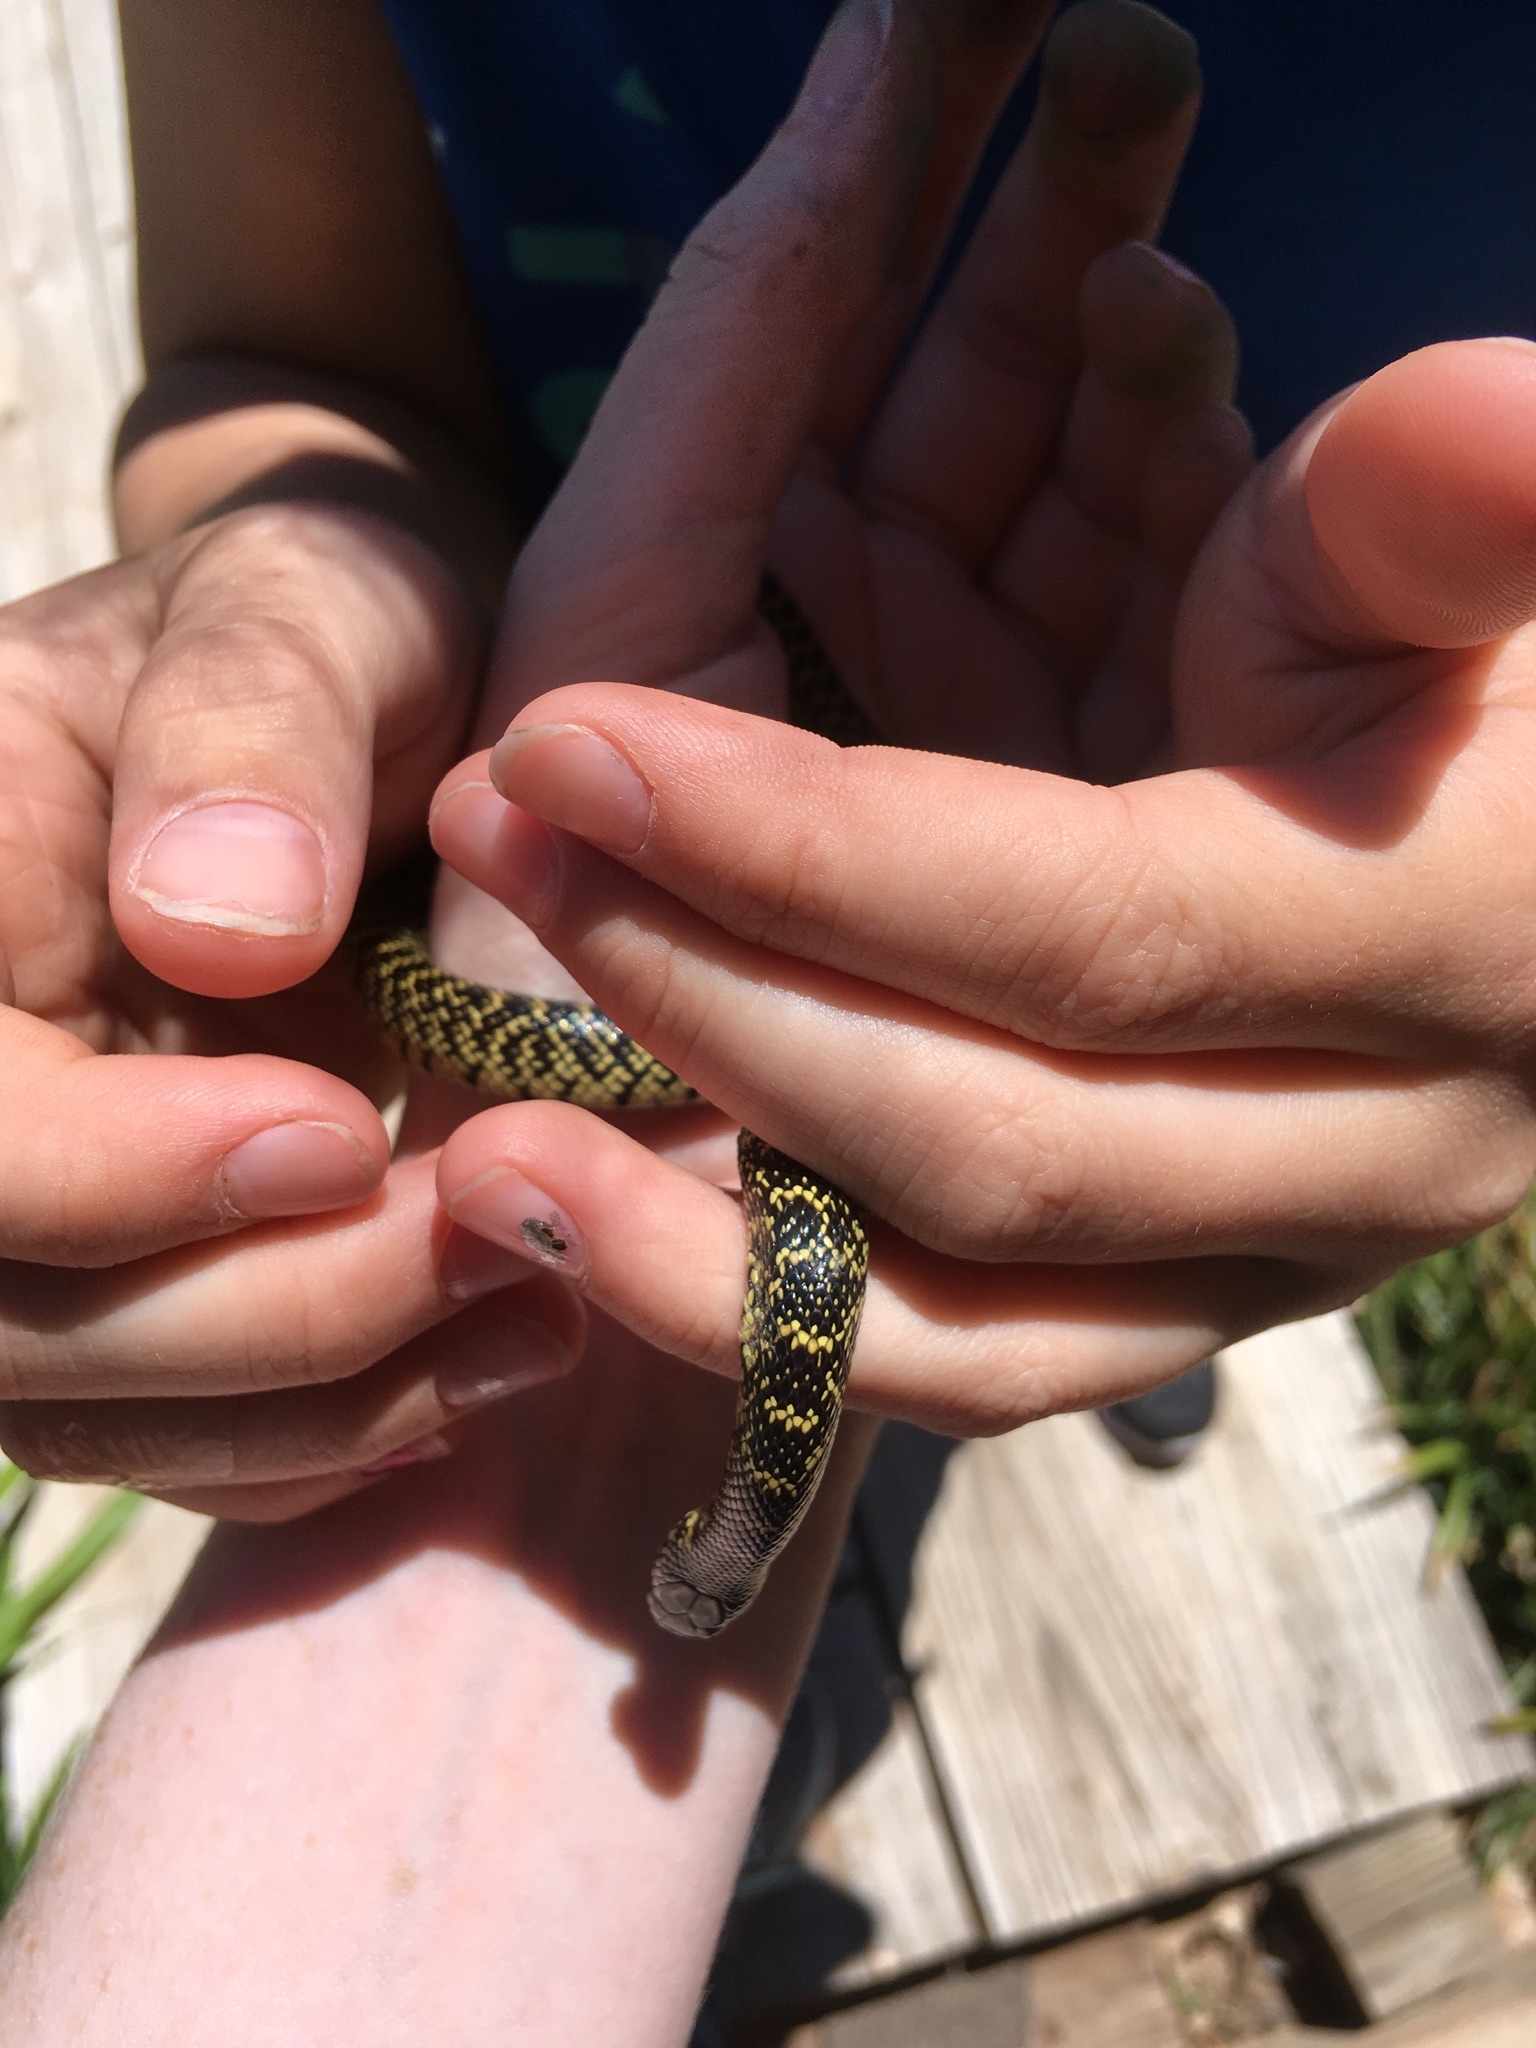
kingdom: Animalia
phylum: Chordata
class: Squamata
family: Colubridae
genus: Lampropeltis
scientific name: Lampropeltis holbrooki
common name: Speckled kingsnake
